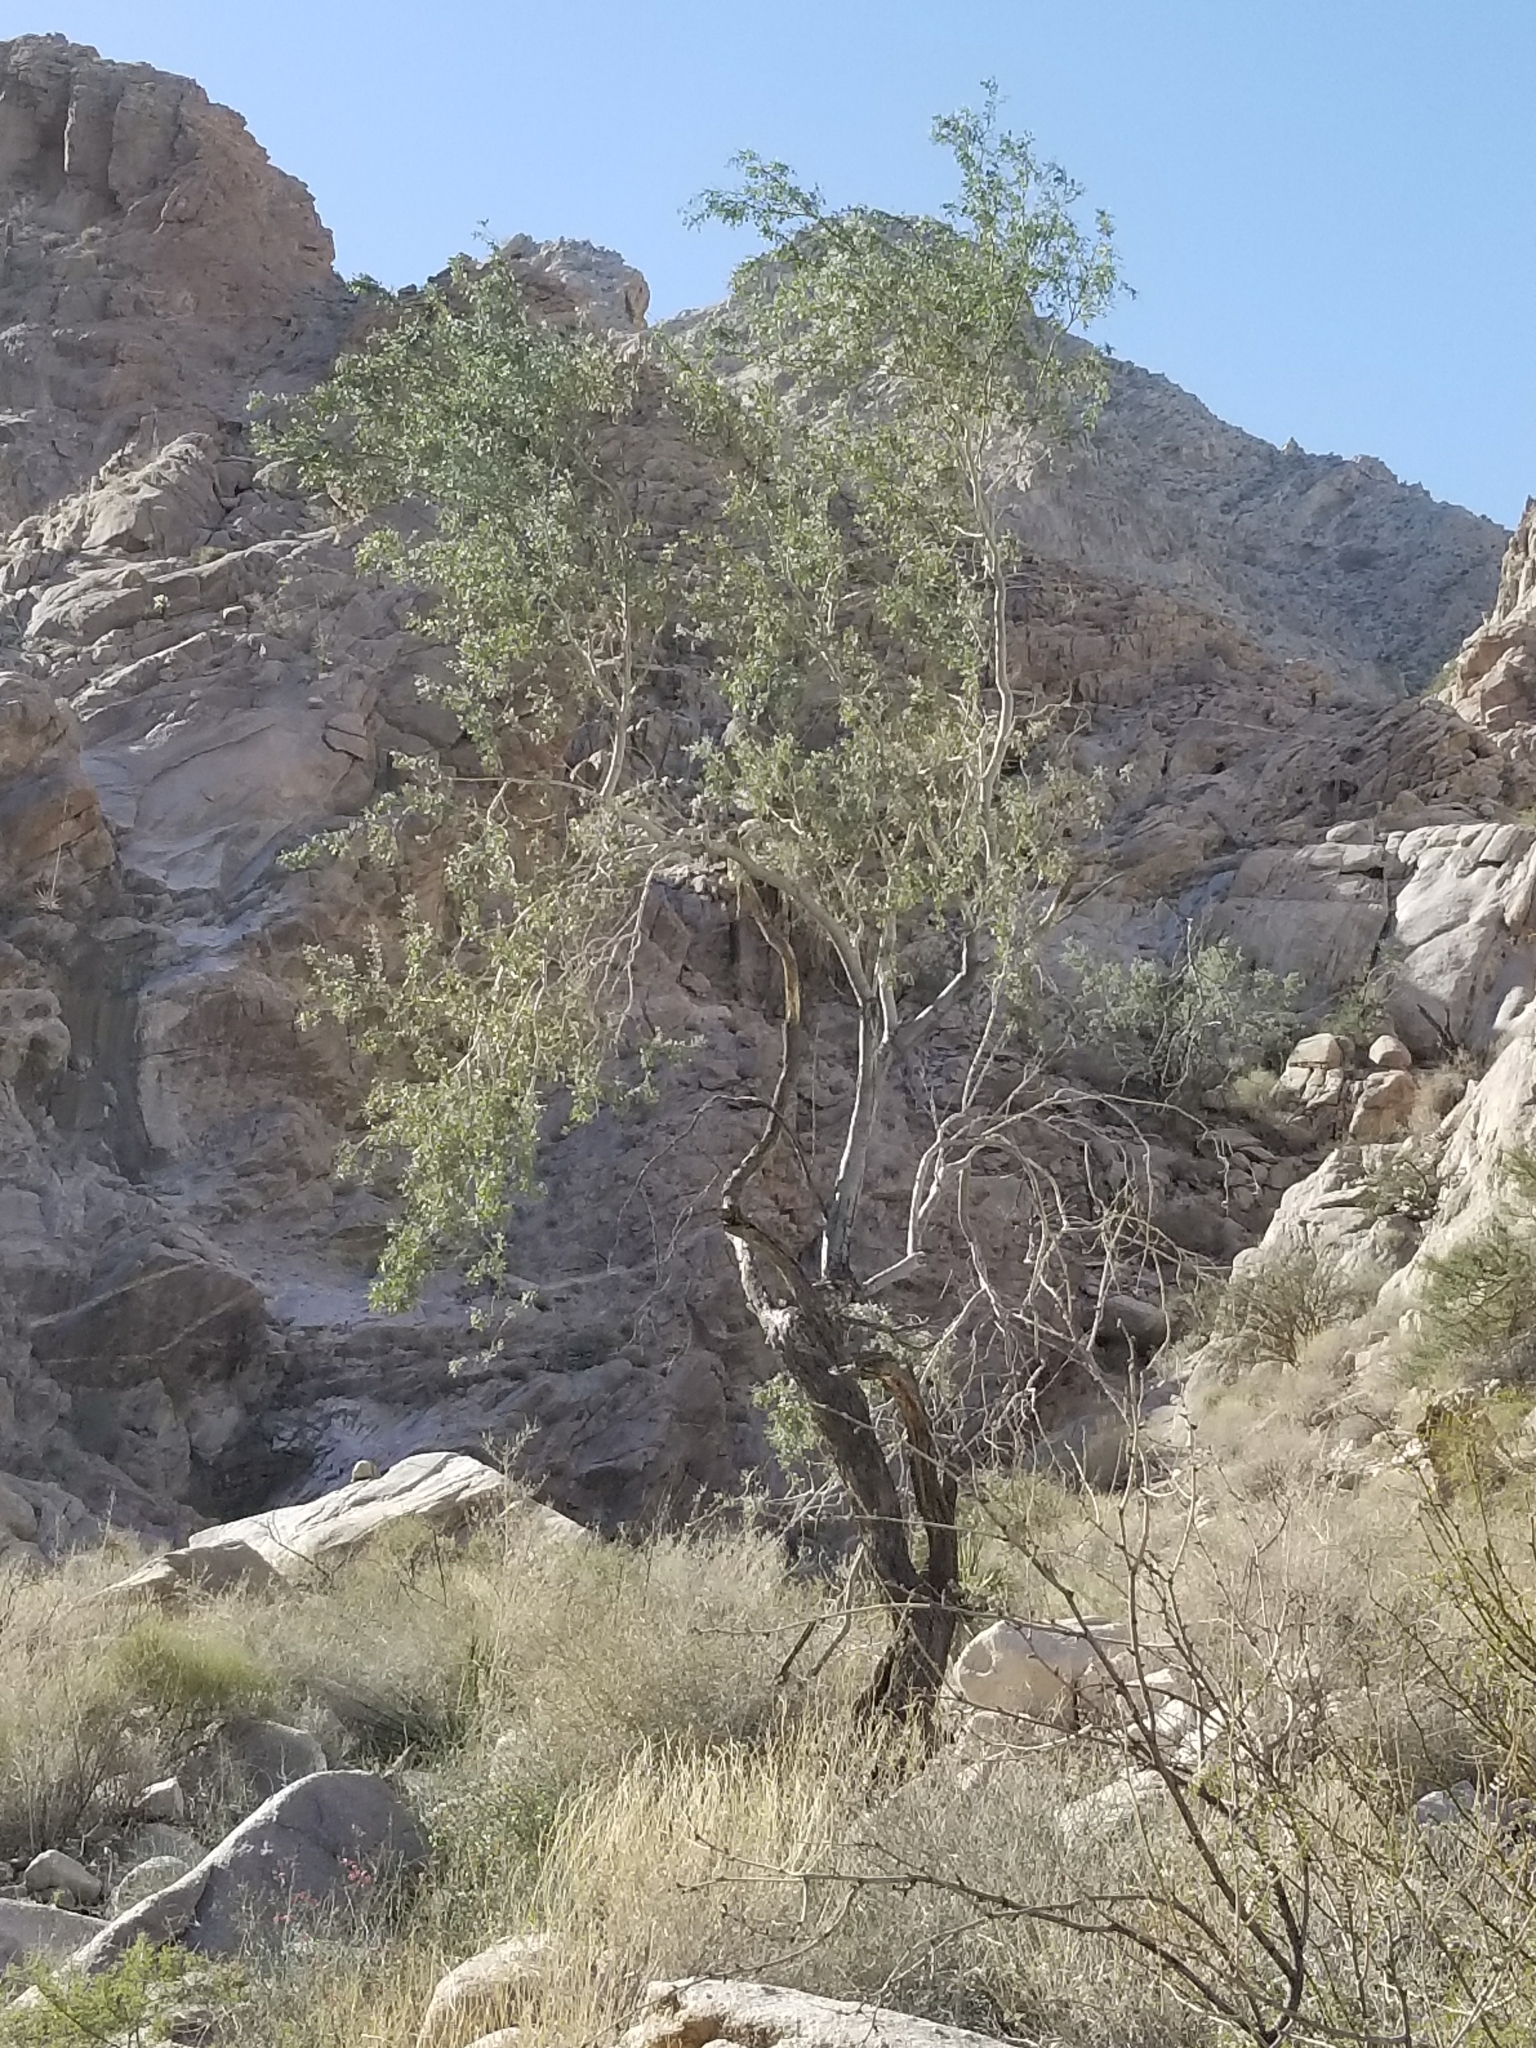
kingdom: Plantae
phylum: Tracheophyta
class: Magnoliopsida
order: Fabales
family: Fabaceae
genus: Olneya
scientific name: Olneya tesota
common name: Desert ironwood
